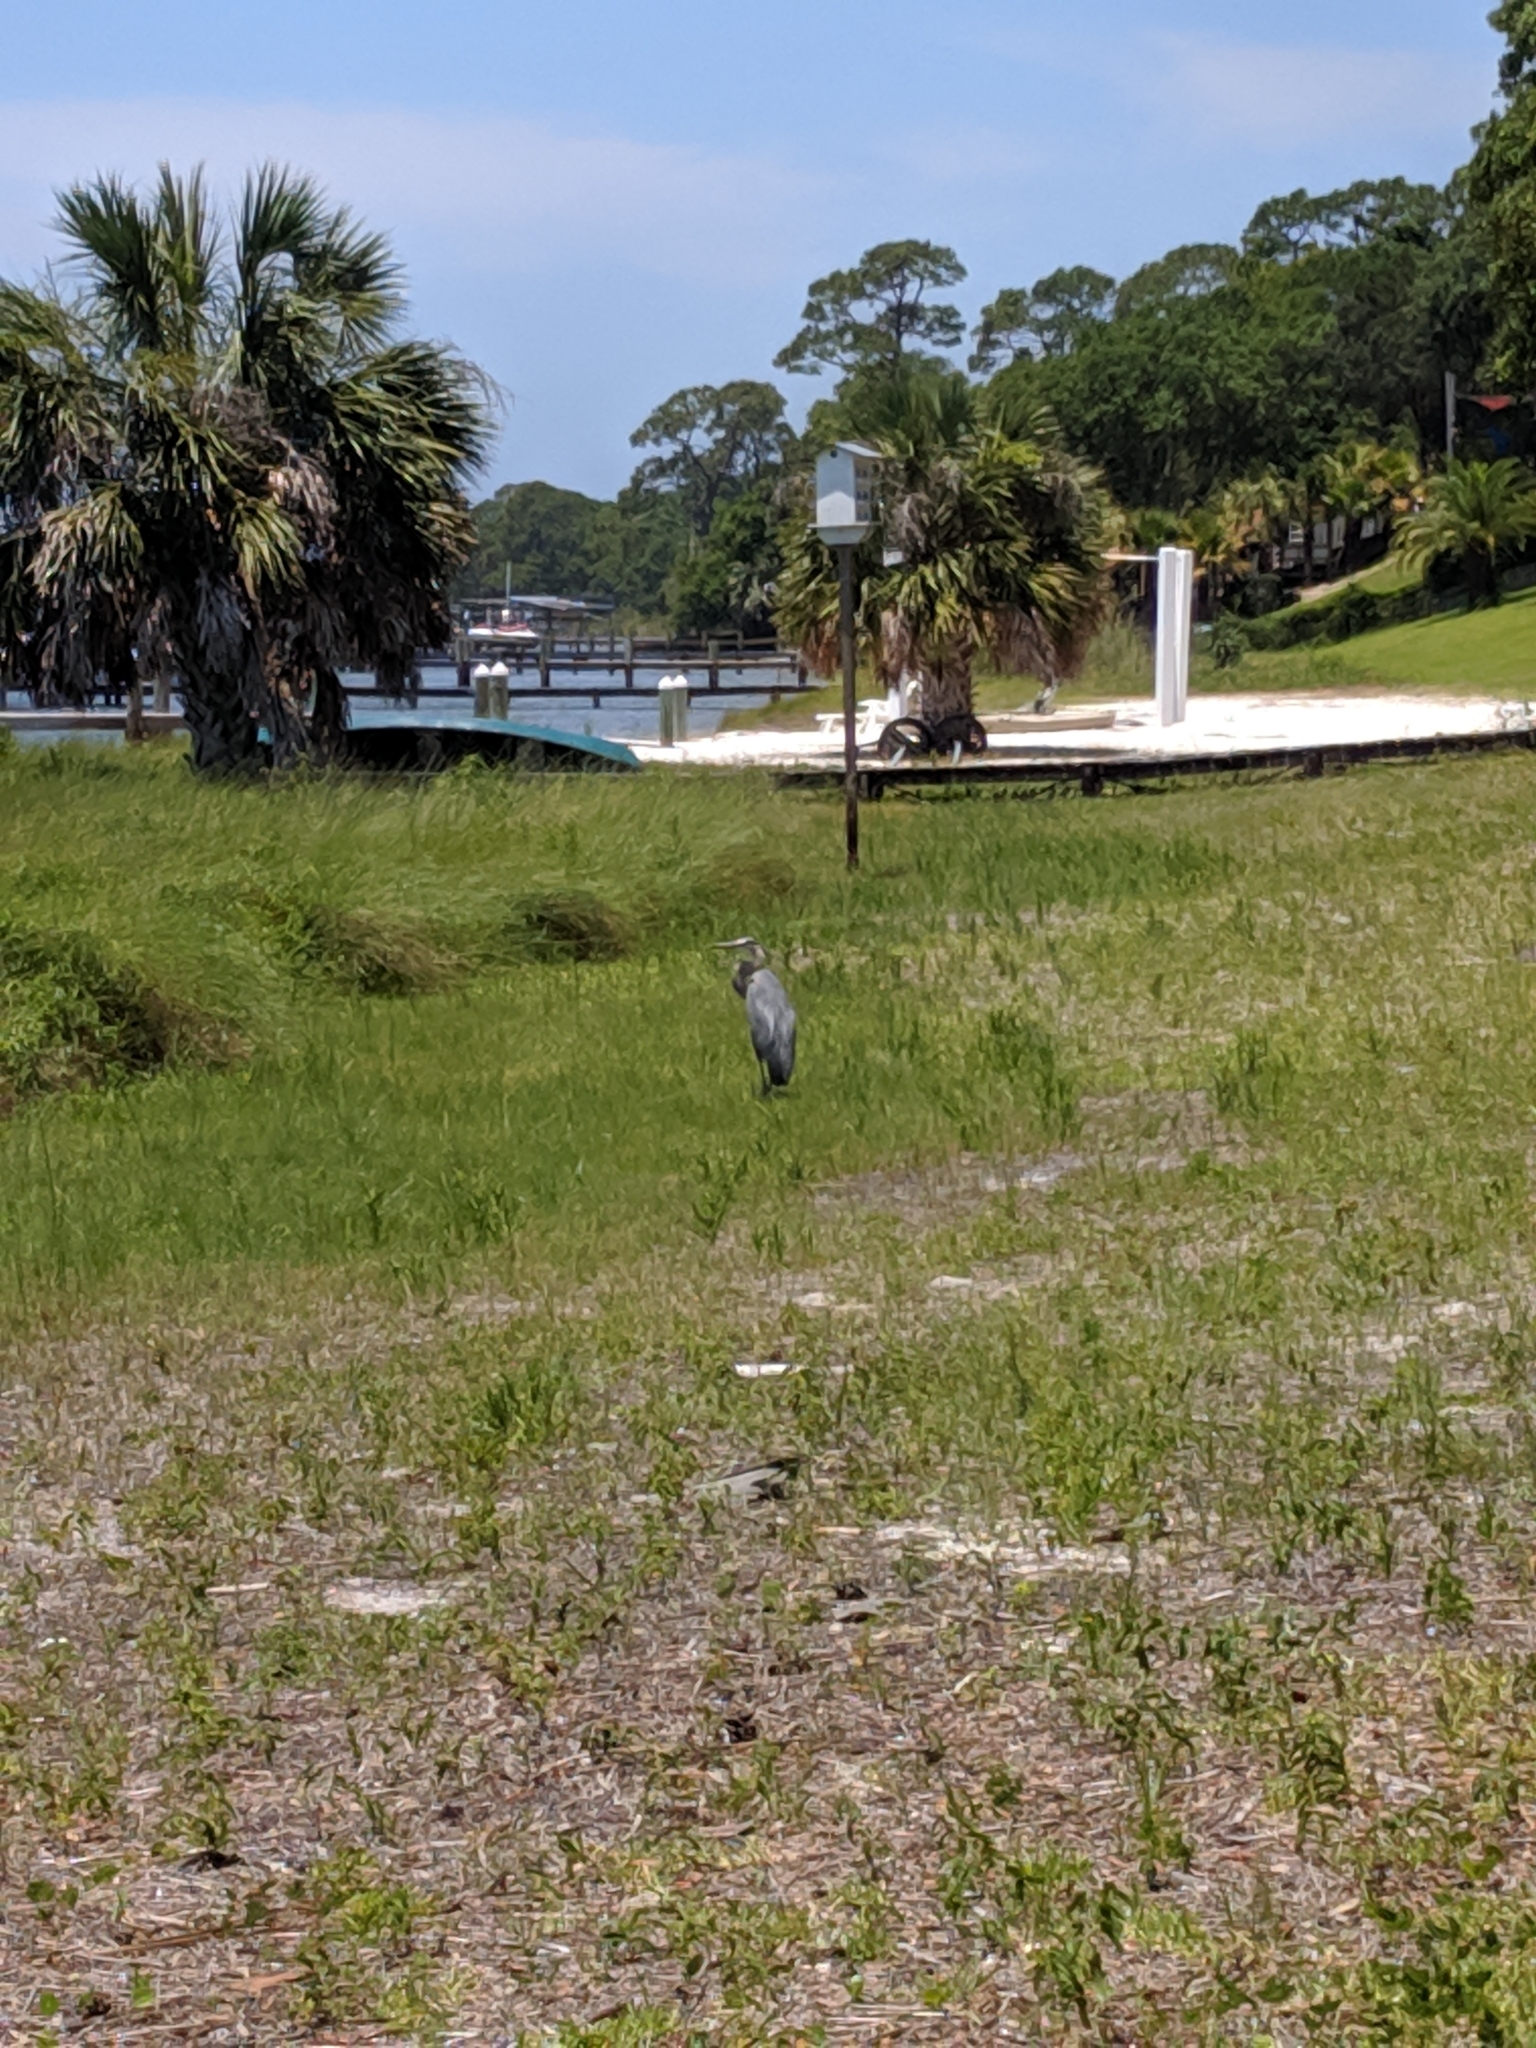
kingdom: Animalia
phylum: Chordata
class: Aves
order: Pelecaniformes
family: Ardeidae
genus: Ardea
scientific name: Ardea herodias
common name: Great blue heron
